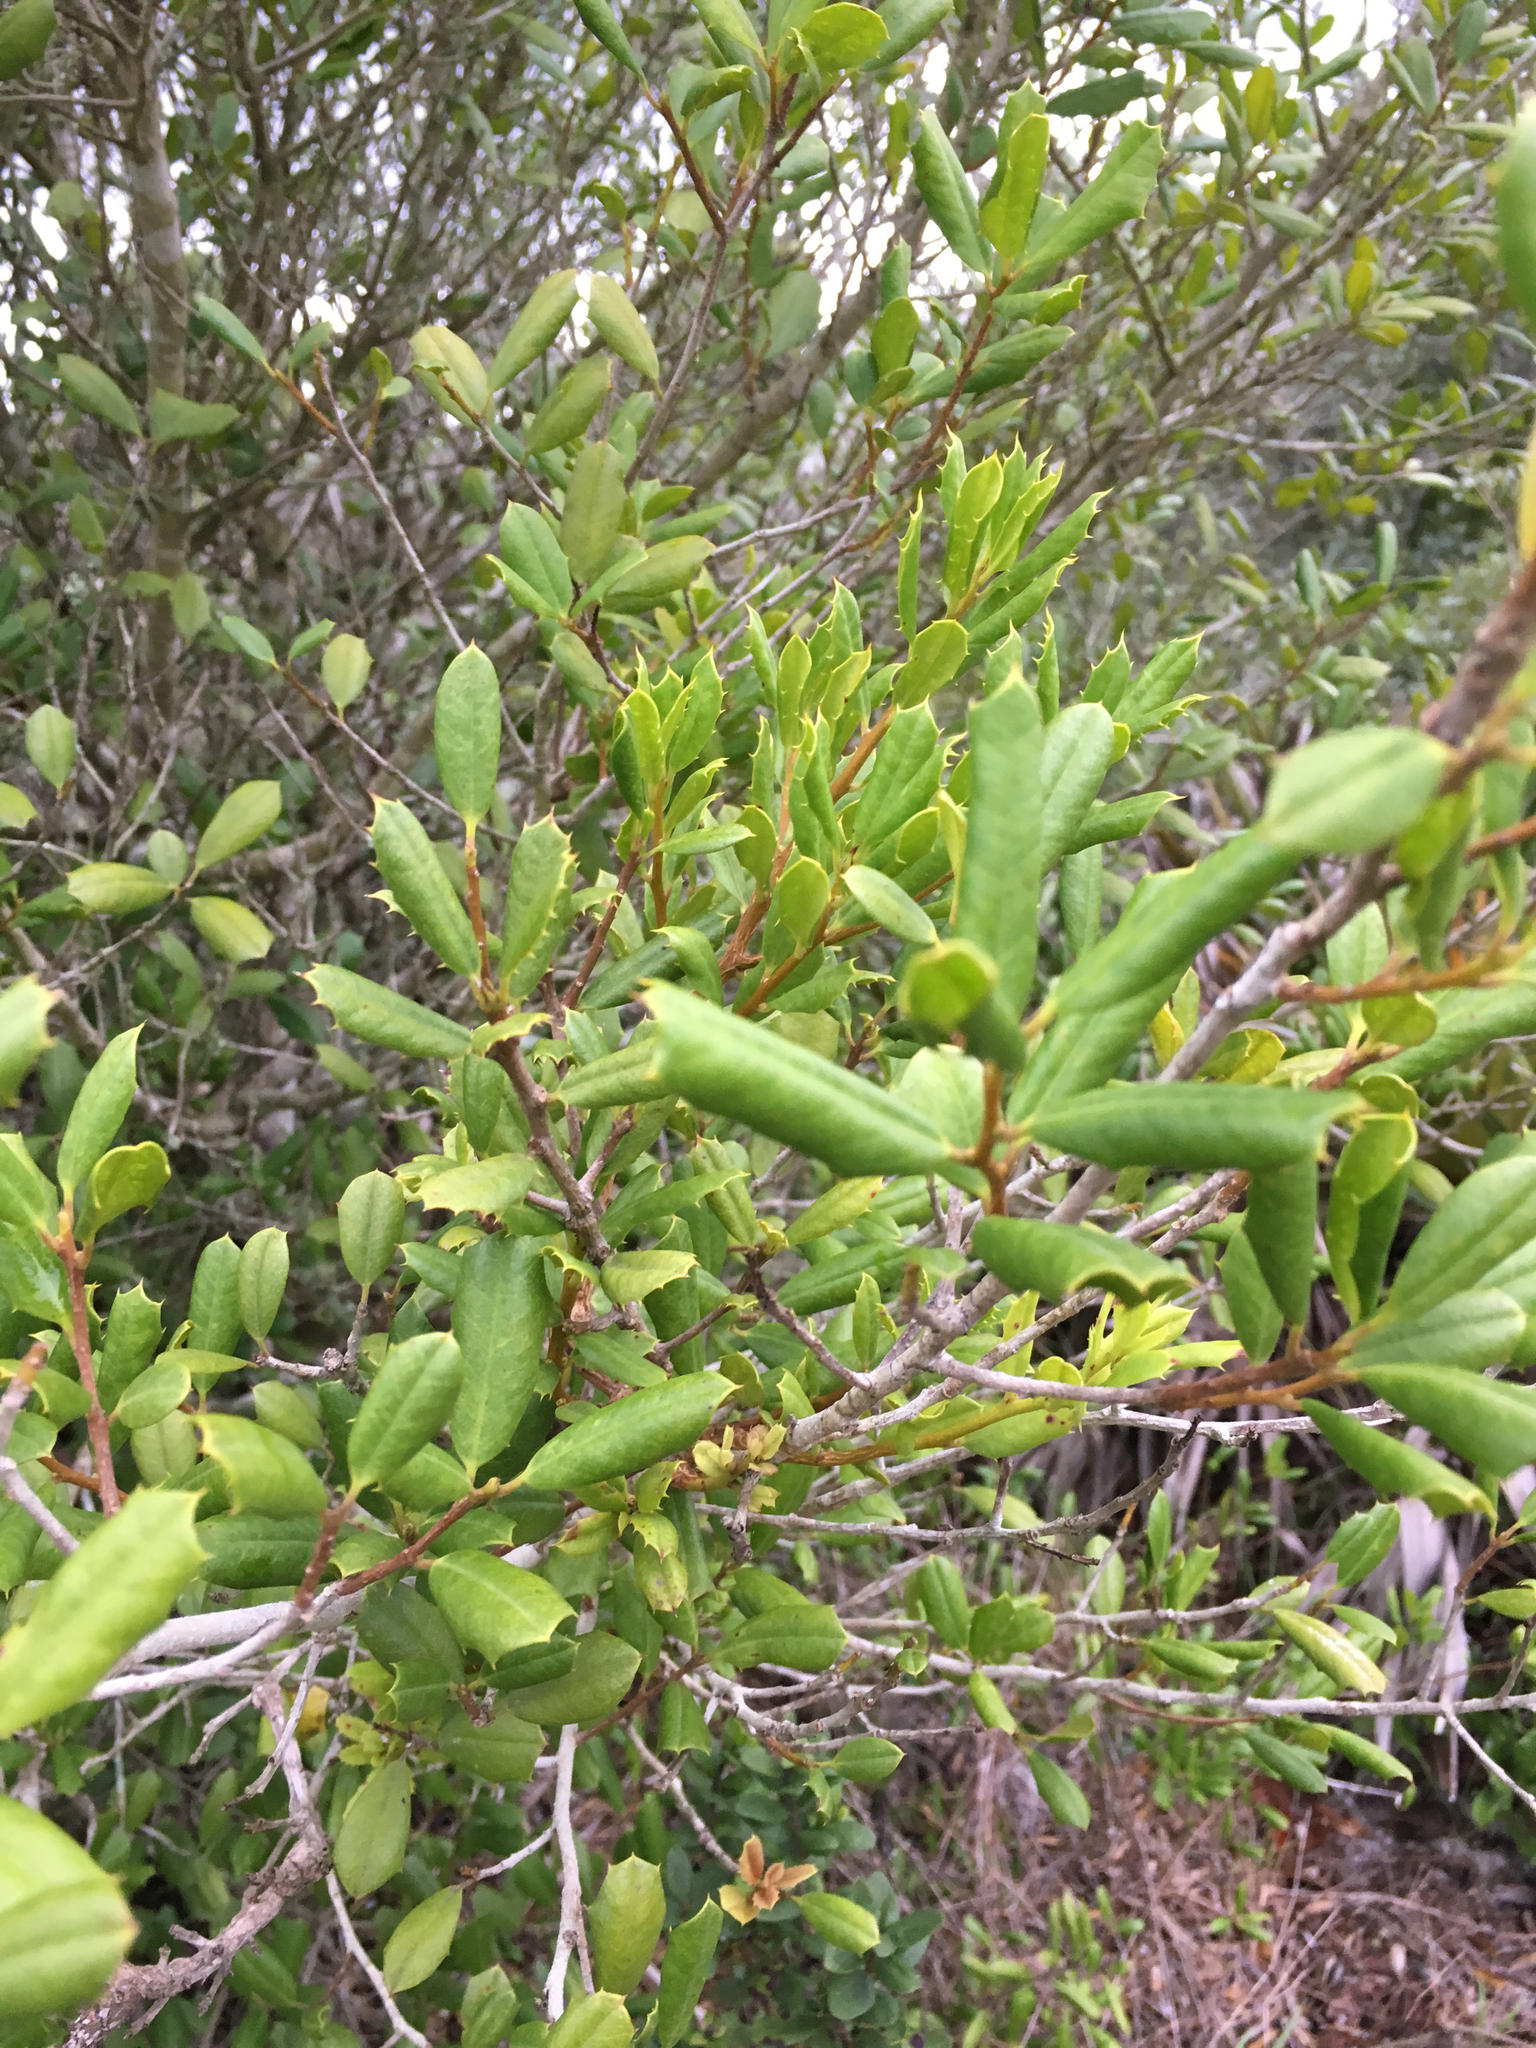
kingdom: Plantae
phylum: Tracheophyta
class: Magnoliopsida
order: Aquifoliales
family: Aquifoliaceae
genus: Ilex
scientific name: Ilex opaca
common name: American holly
